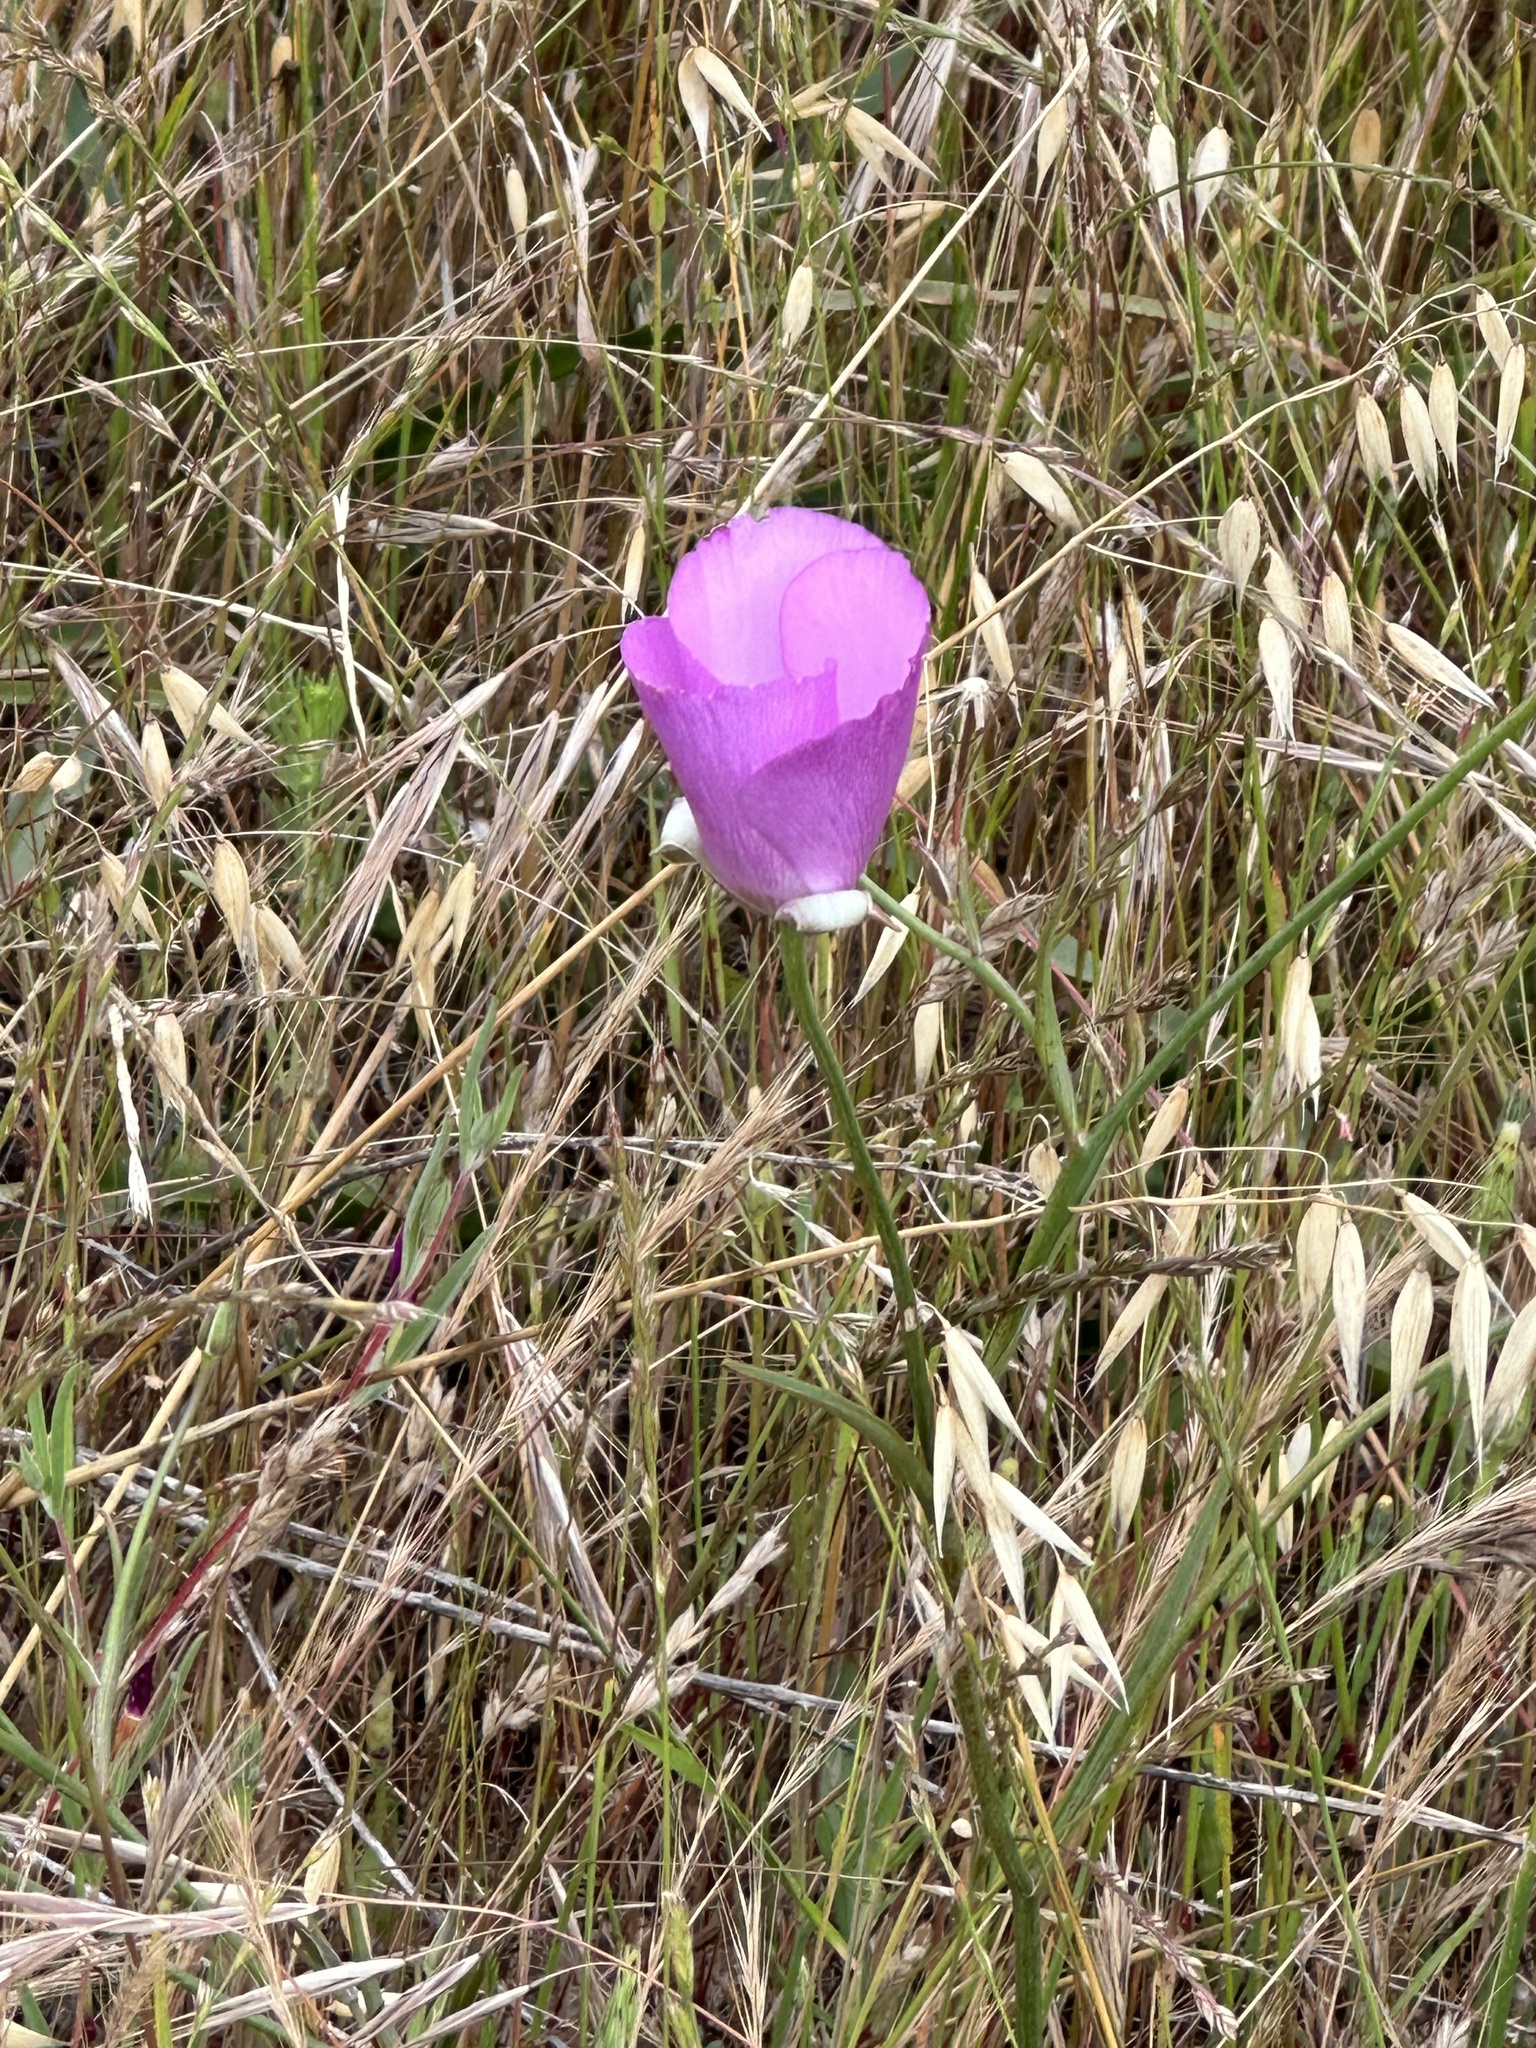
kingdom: Plantae
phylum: Tracheophyta
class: Liliopsida
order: Liliales
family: Liliaceae
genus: Calochortus
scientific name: Calochortus splendens
